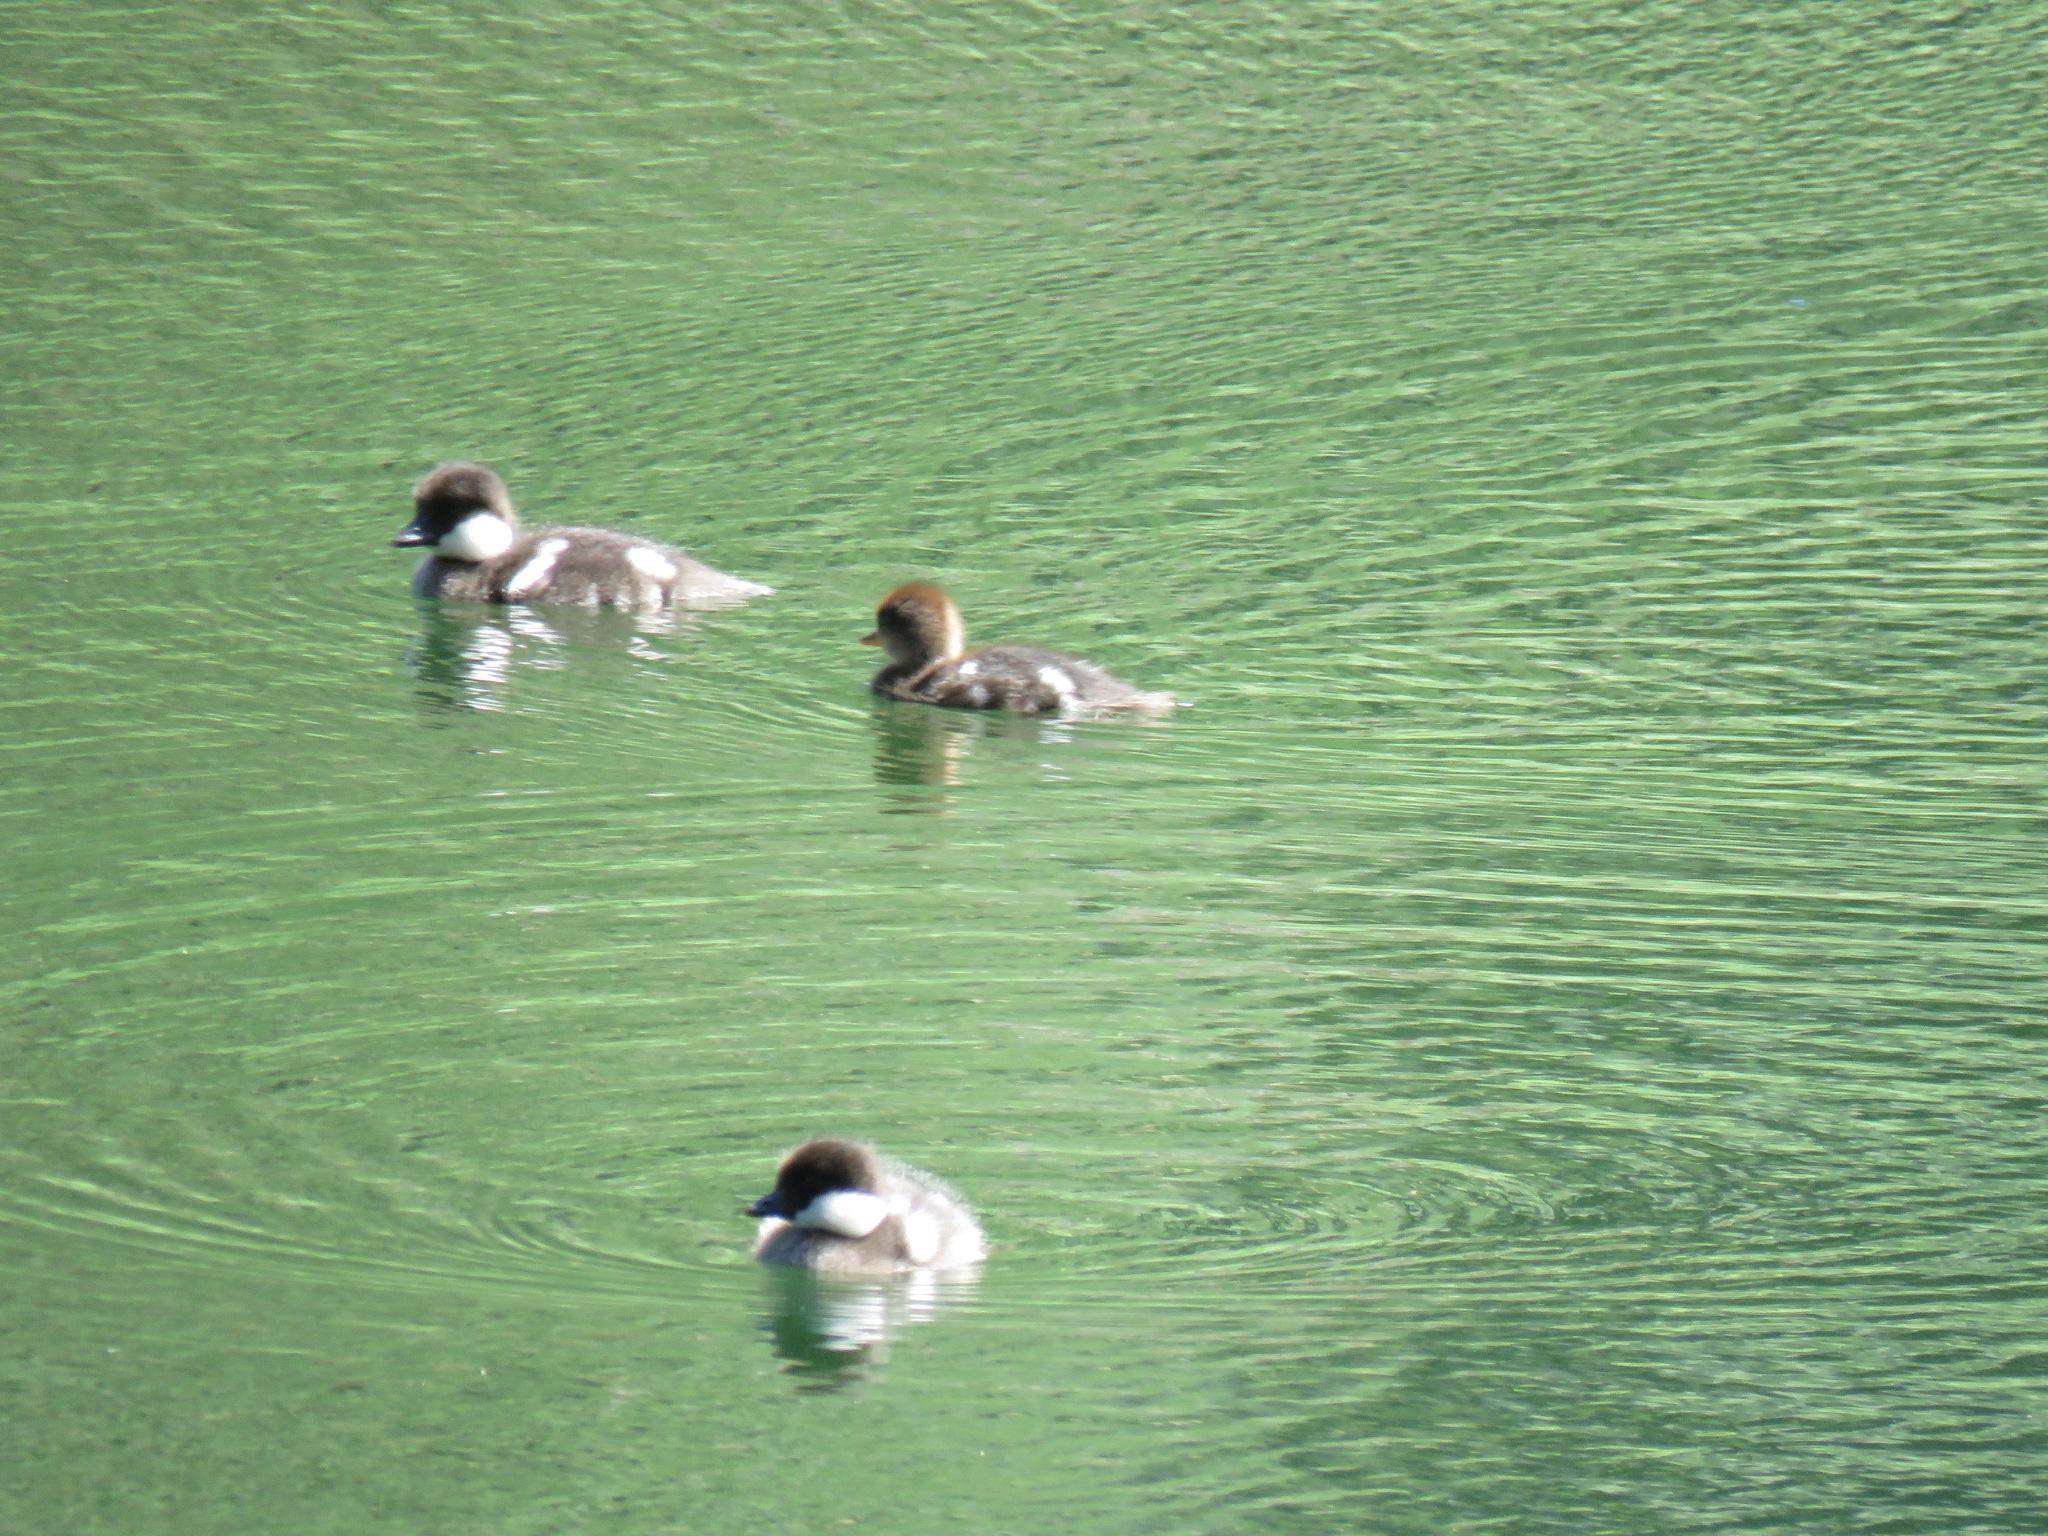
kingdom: Animalia
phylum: Chordata
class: Aves
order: Anseriformes
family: Anatidae
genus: Bucephala
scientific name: Bucephala albeola
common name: Bufflehead
